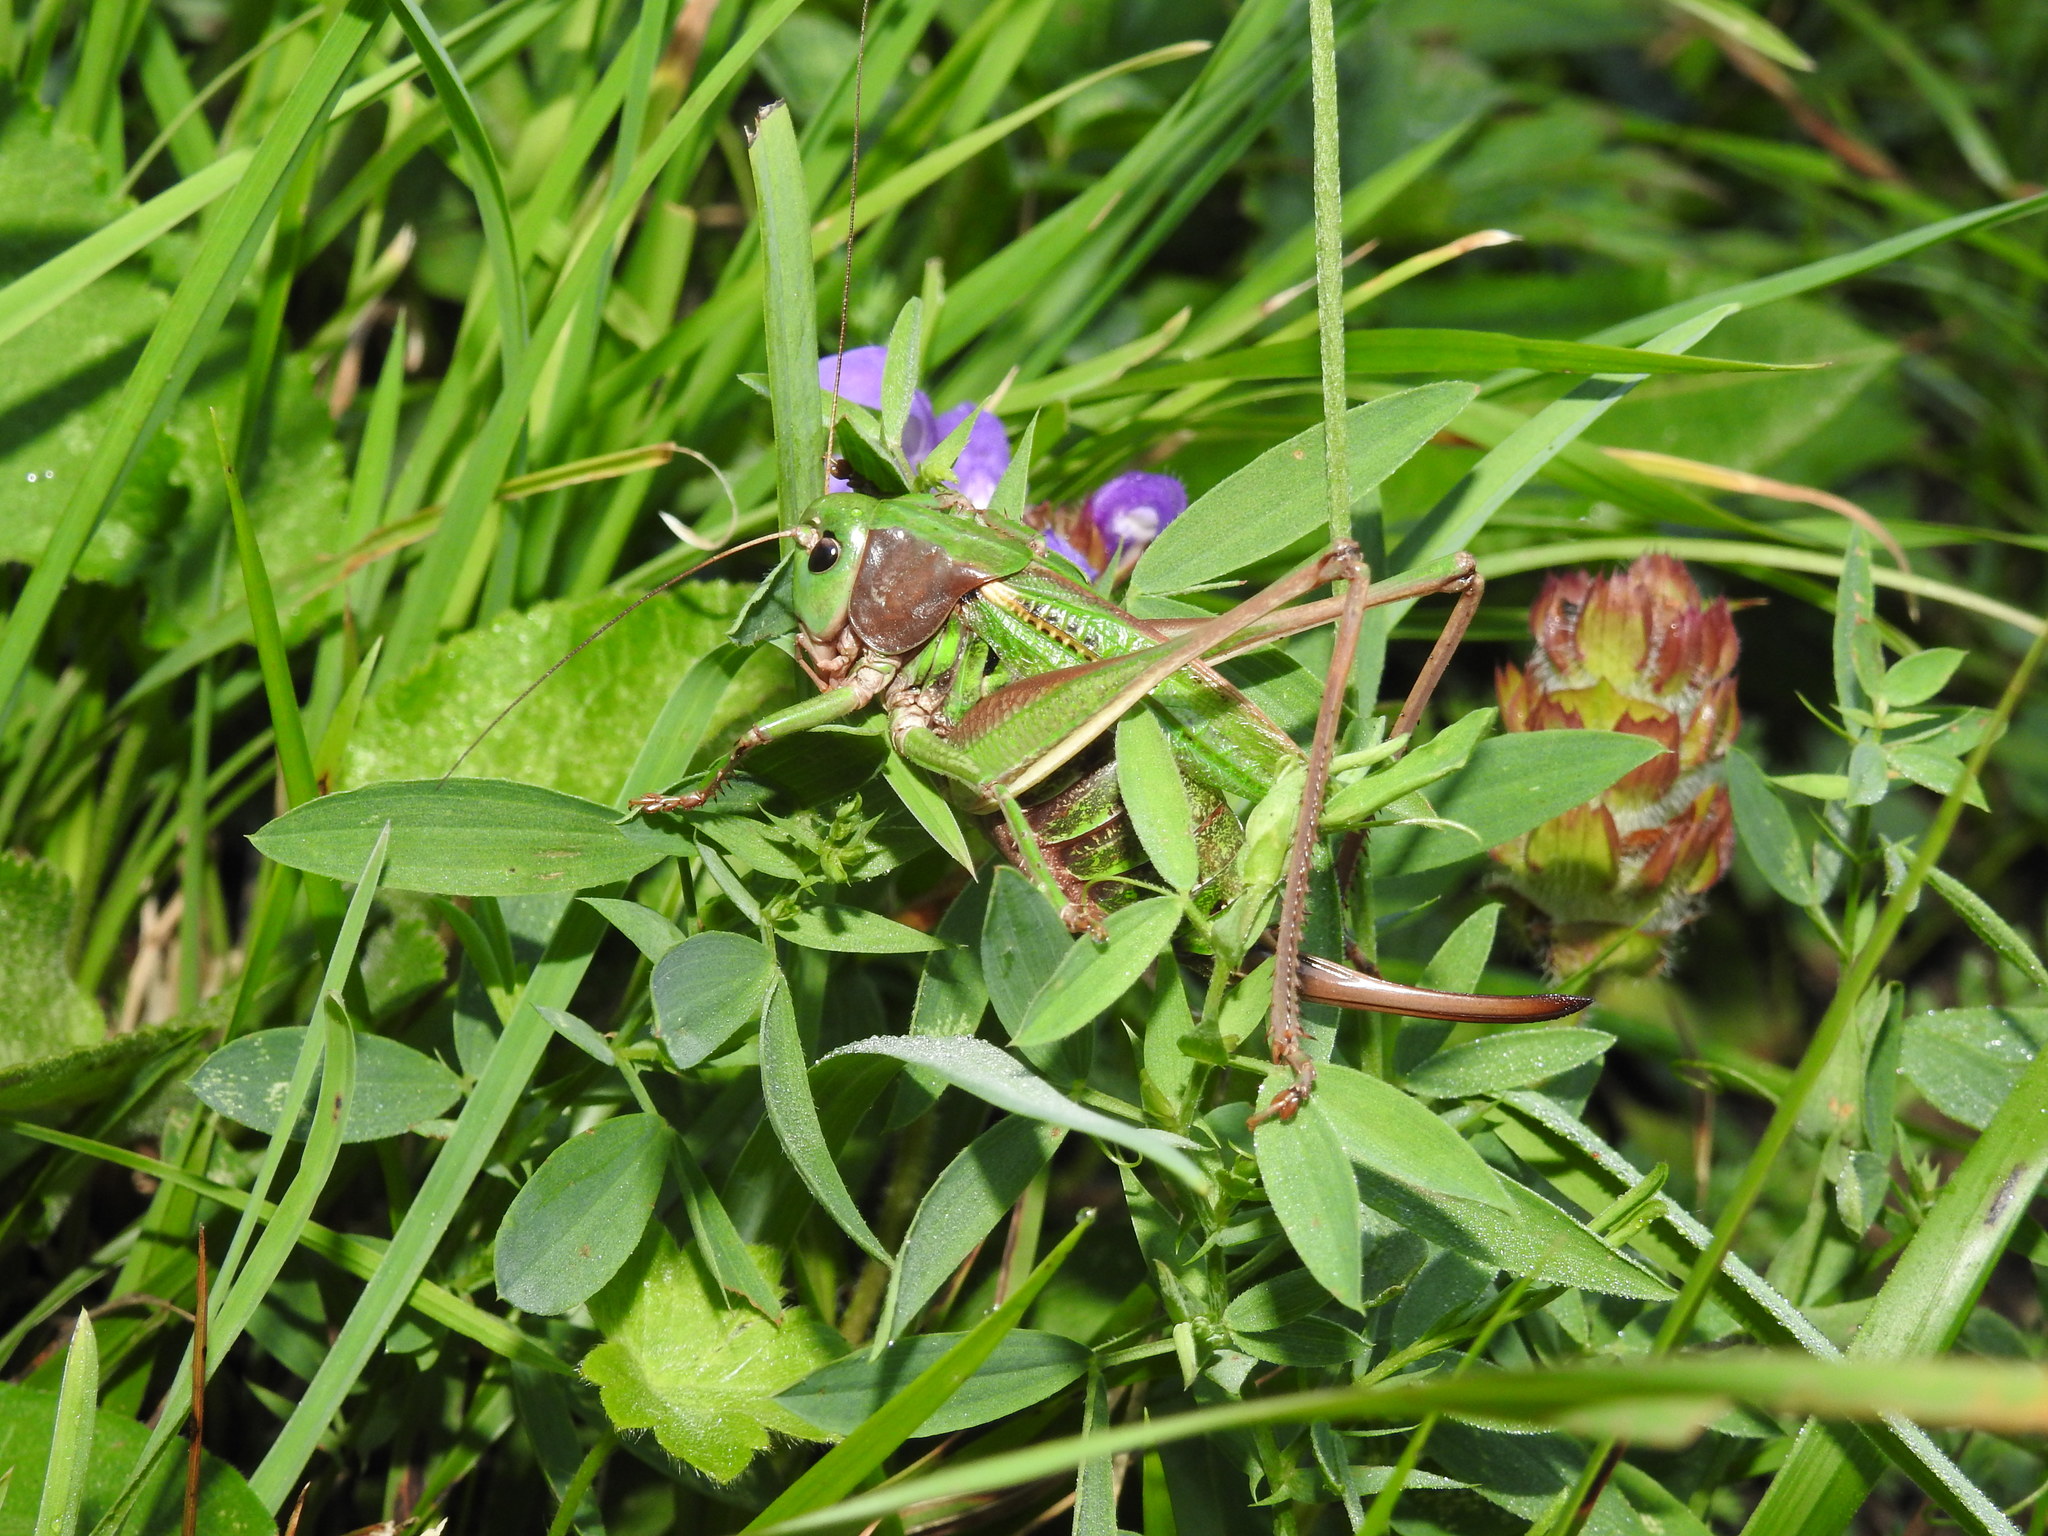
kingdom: Animalia
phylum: Arthropoda
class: Insecta
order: Orthoptera
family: Tettigoniidae
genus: Decticus
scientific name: Decticus verrucivorus
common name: Wart-biter
